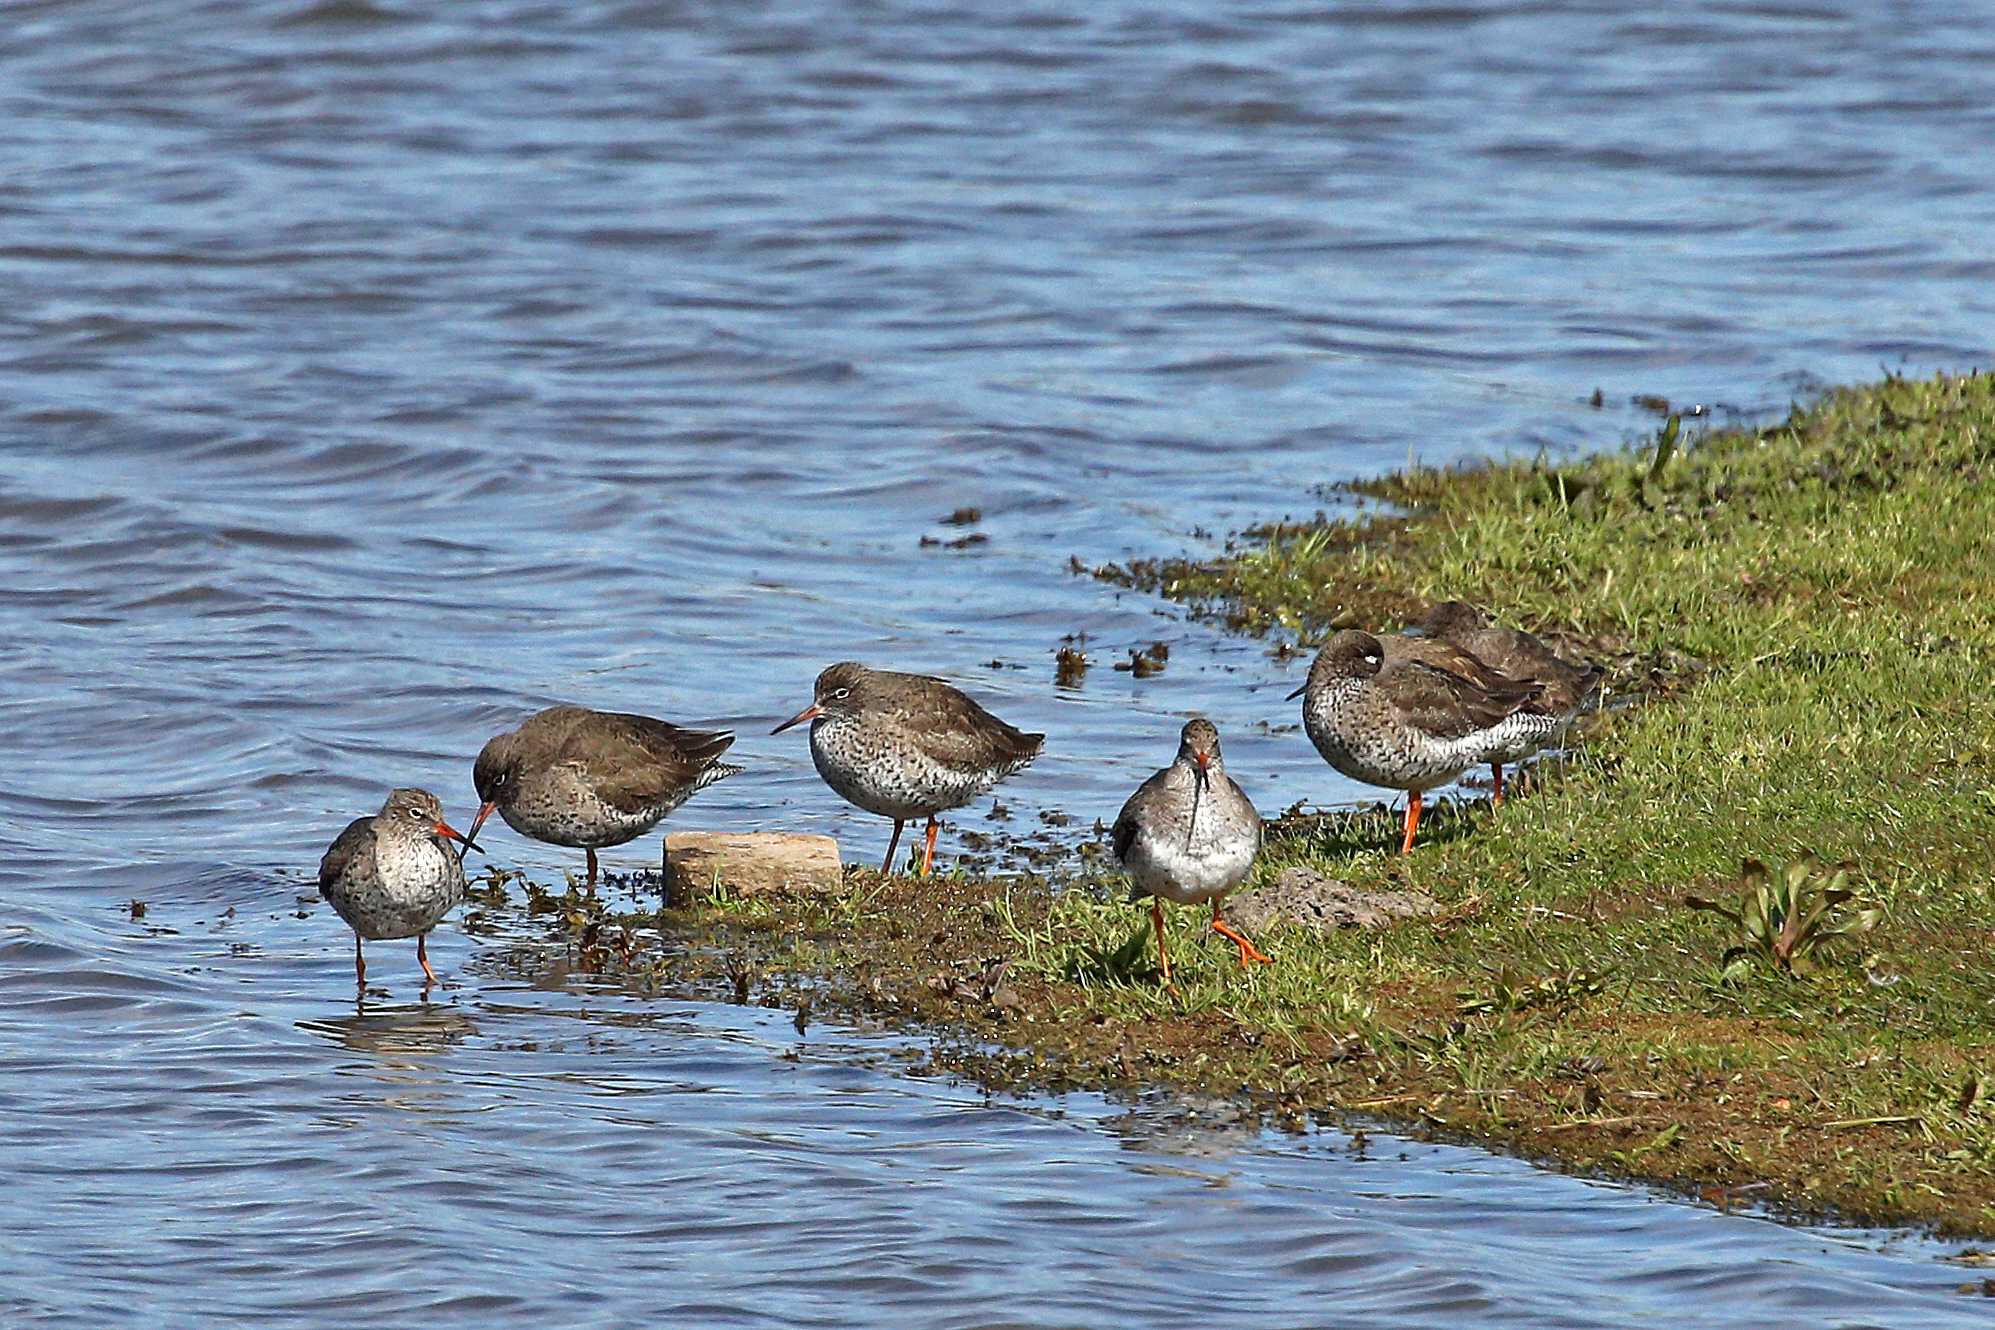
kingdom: Animalia
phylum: Chordata
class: Aves
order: Charadriiformes
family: Scolopacidae
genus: Tringa
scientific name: Tringa totanus
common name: Common redshank
